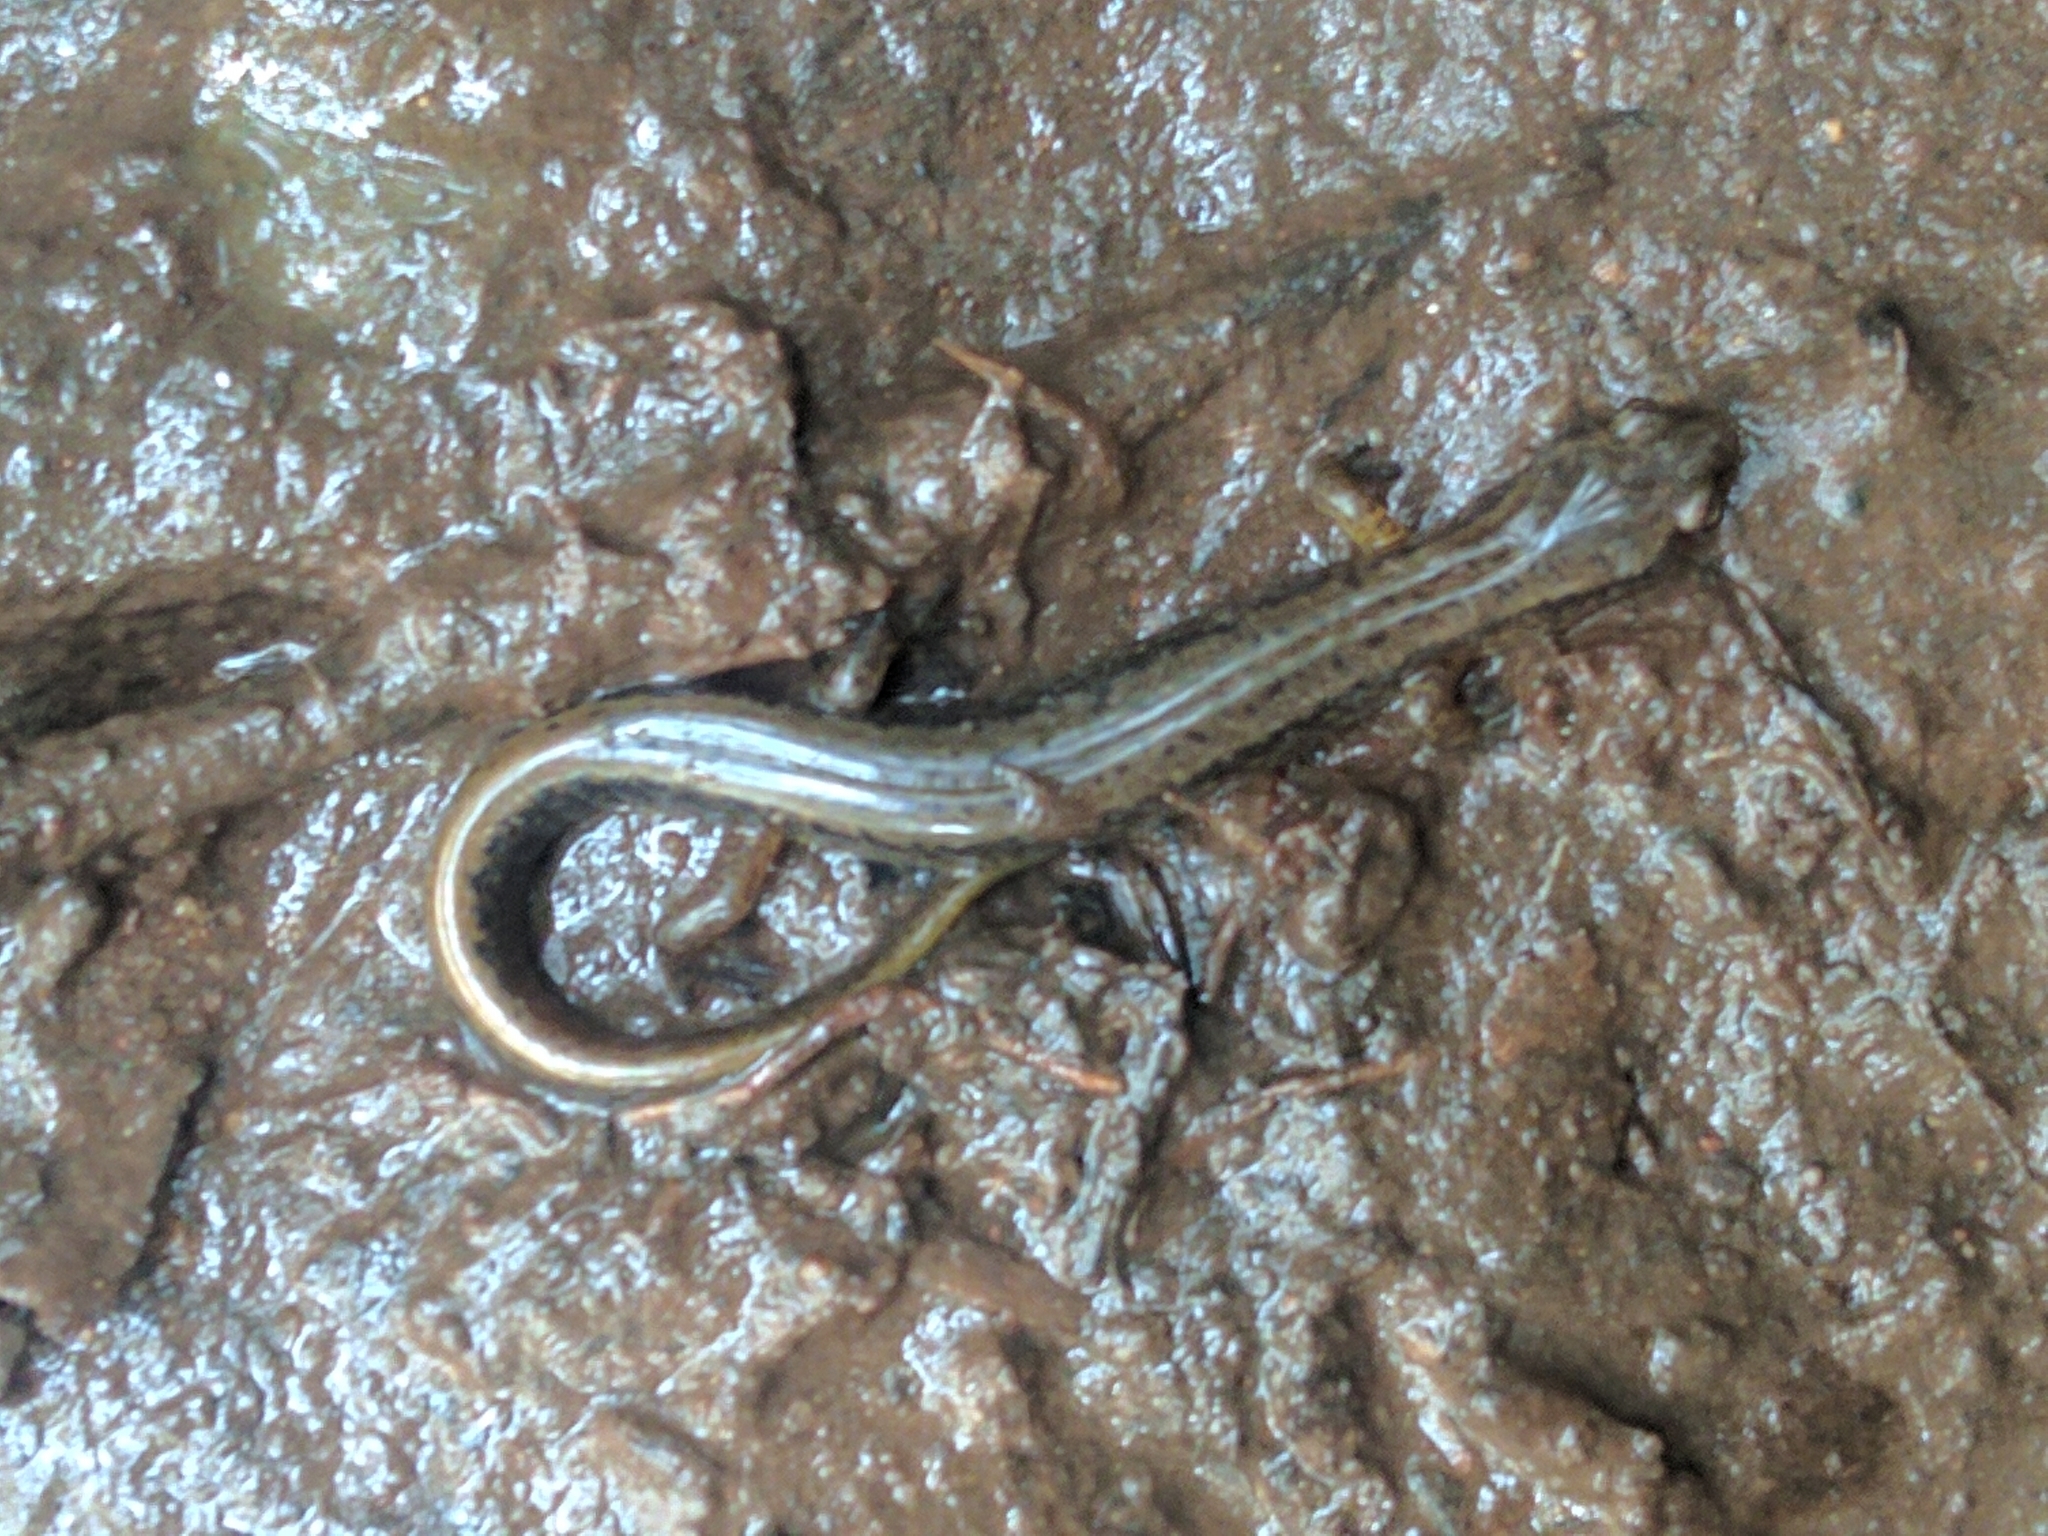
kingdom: Animalia
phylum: Chordata
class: Amphibia
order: Caudata
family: Plethodontidae
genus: Eurycea
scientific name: Eurycea bislineata
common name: Northern two-lined salamander
